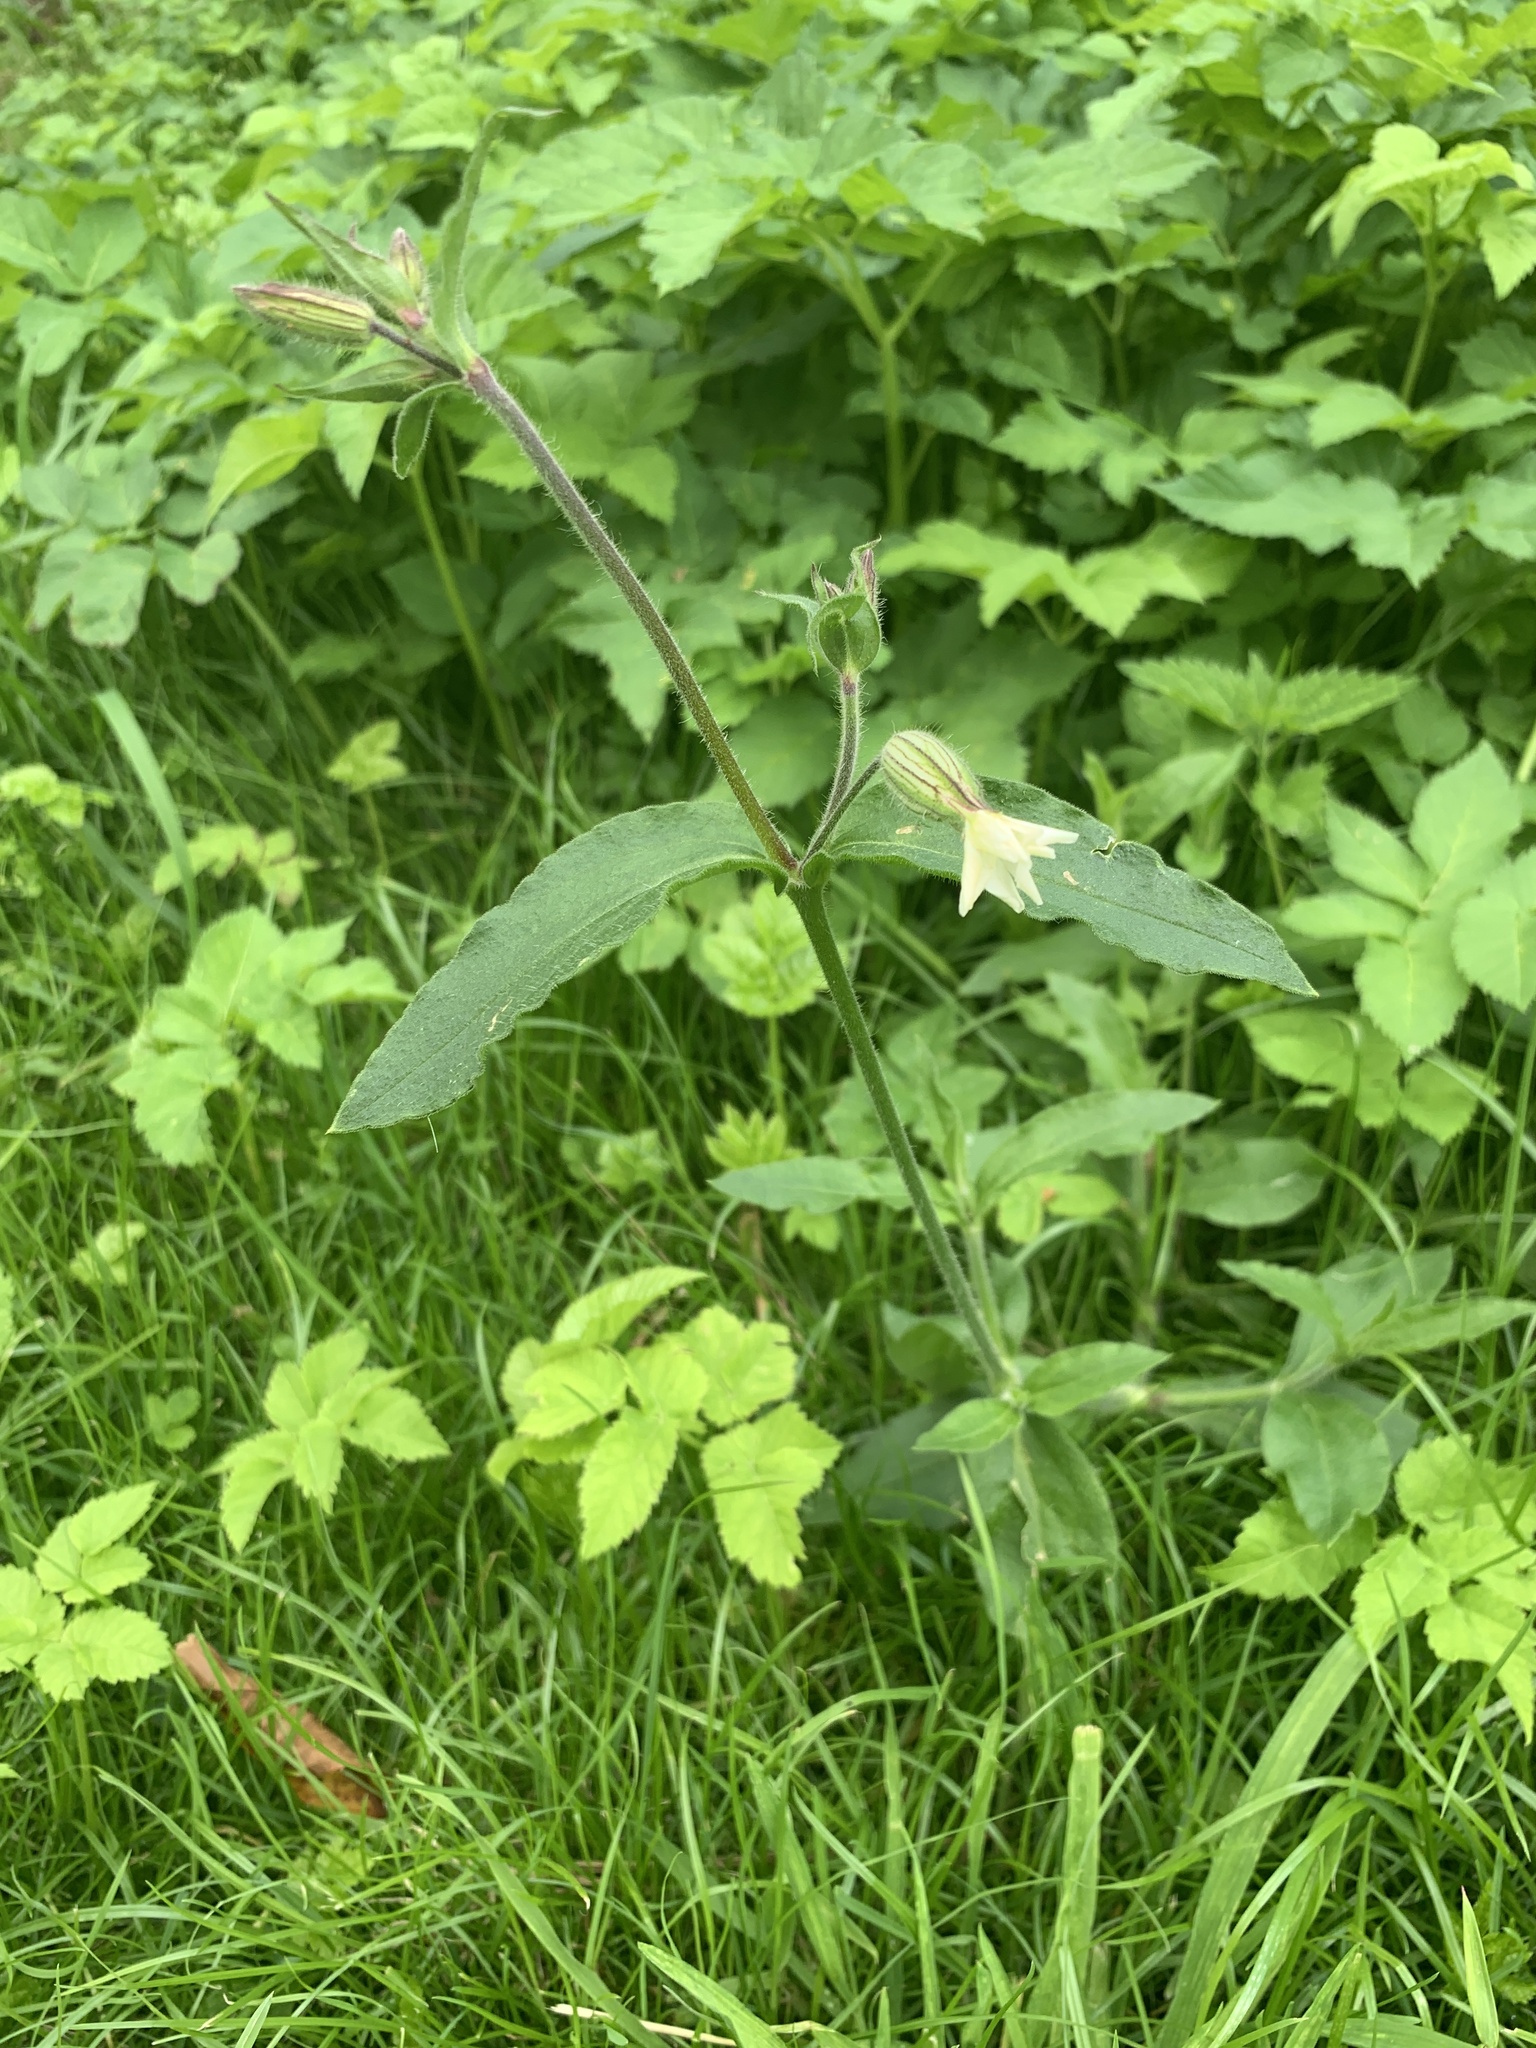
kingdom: Plantae
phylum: Tracheophyta
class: Magnoliopsida
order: Caryophyllales
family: Caryophyllaceae
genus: Silene
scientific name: Silene latifolia
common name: White campion
